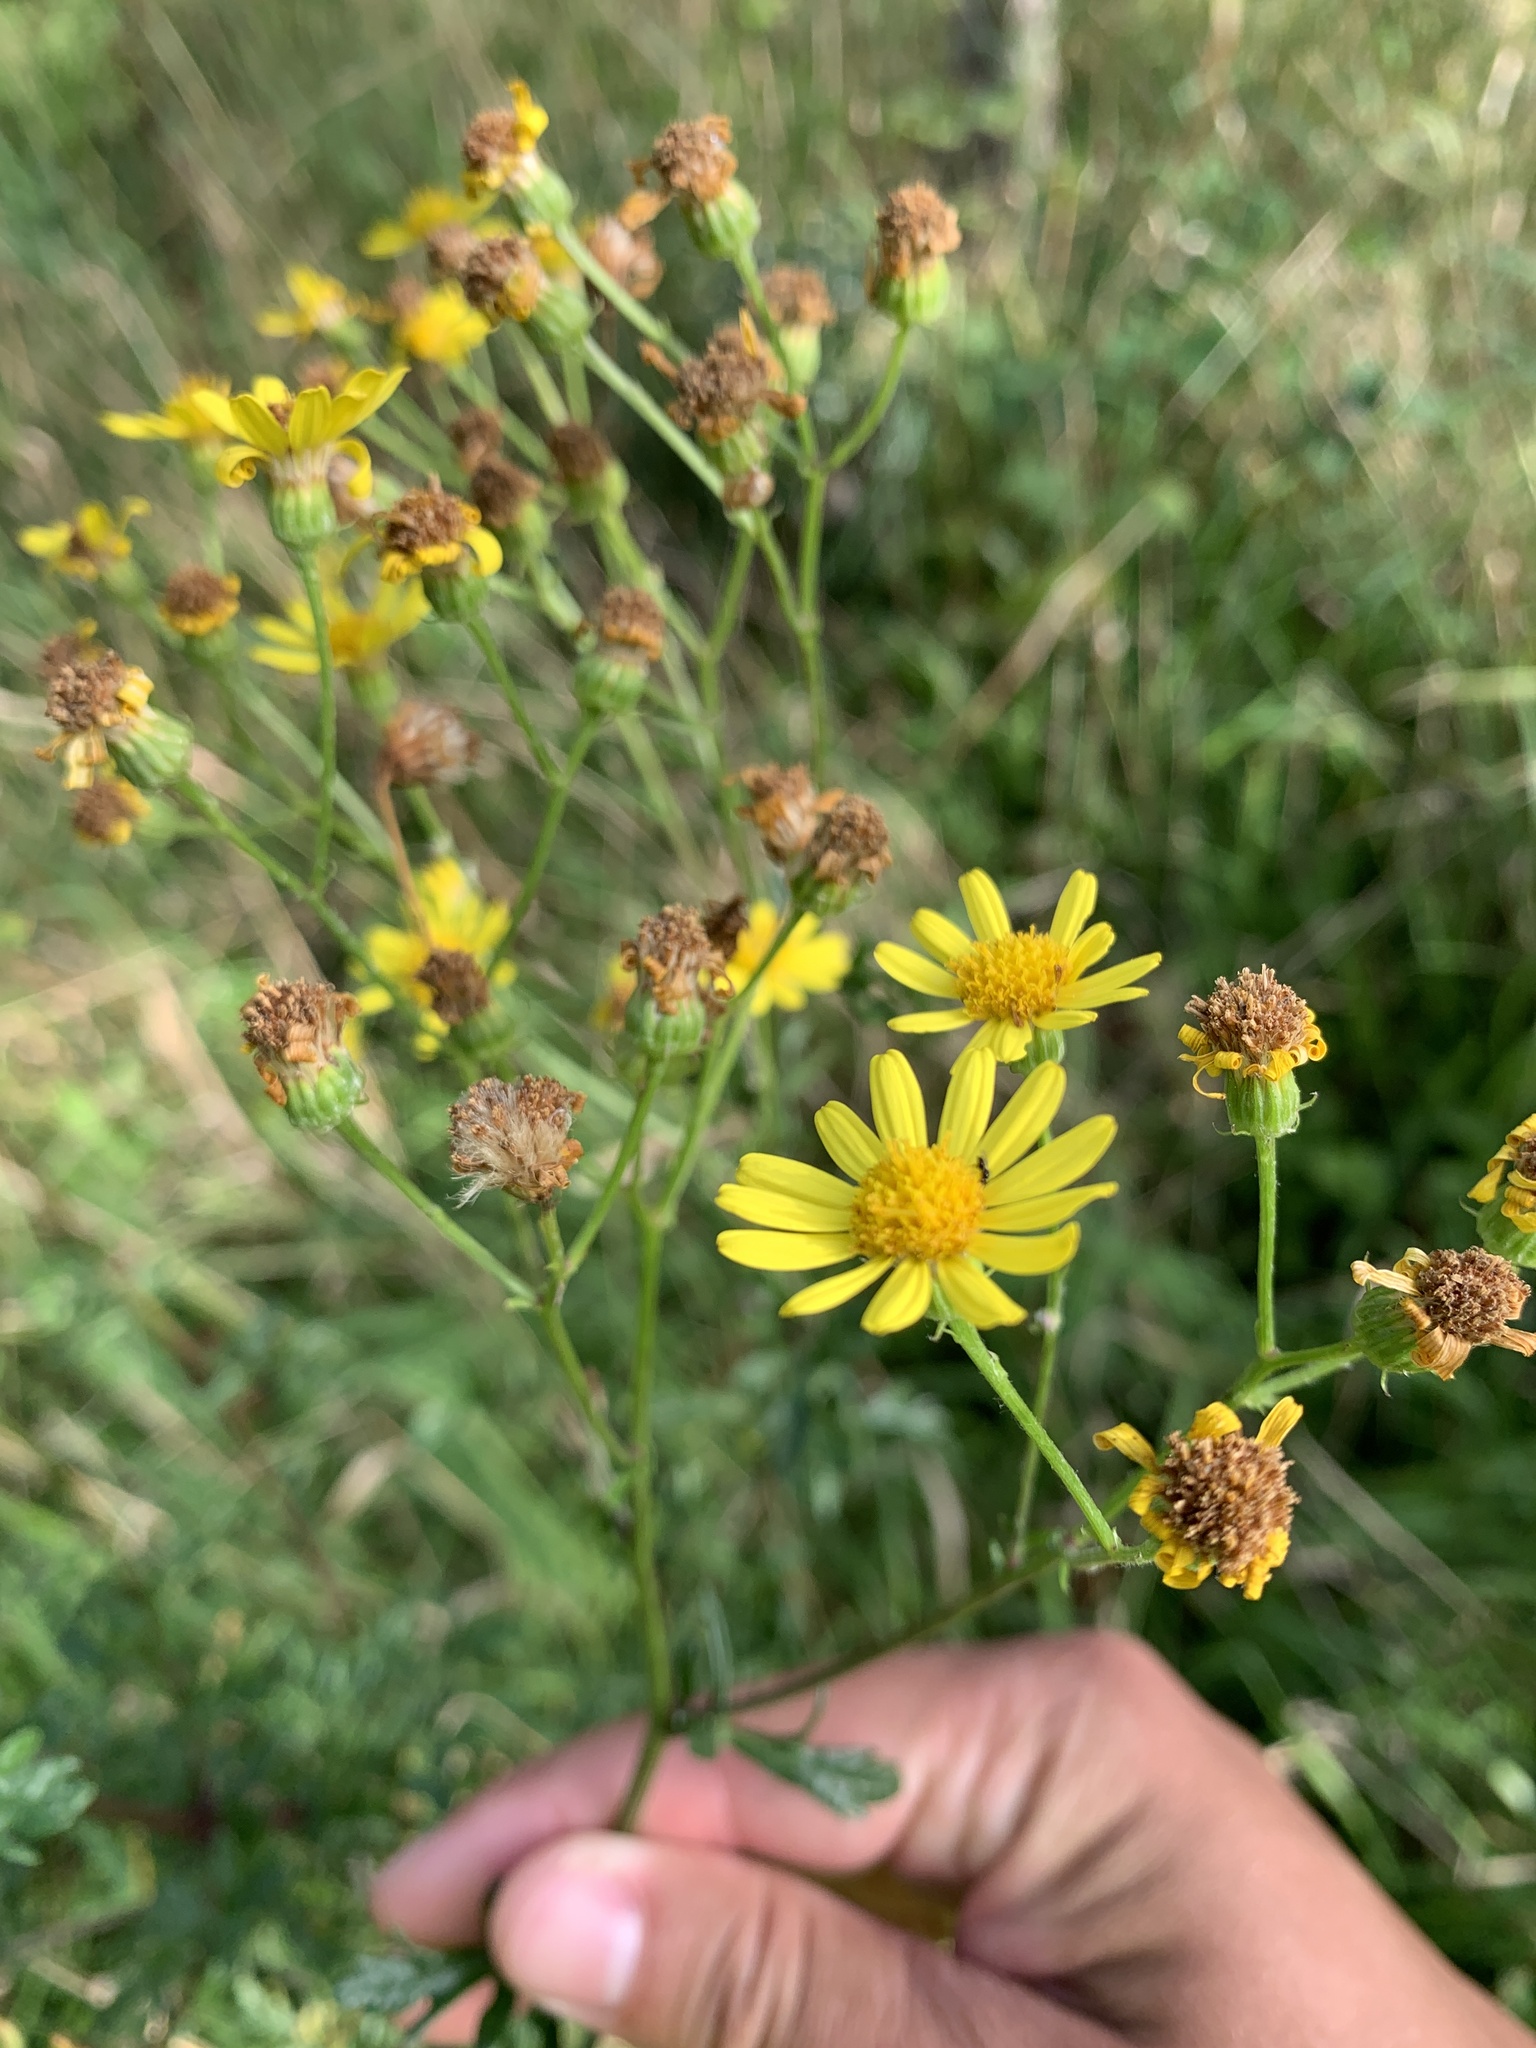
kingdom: Plantae
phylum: Tracheophyta
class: Magnoliopsida
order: Asterales
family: Asteraceae
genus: Jacobaea
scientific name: Jacobaea aquatica
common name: Water ragwort
